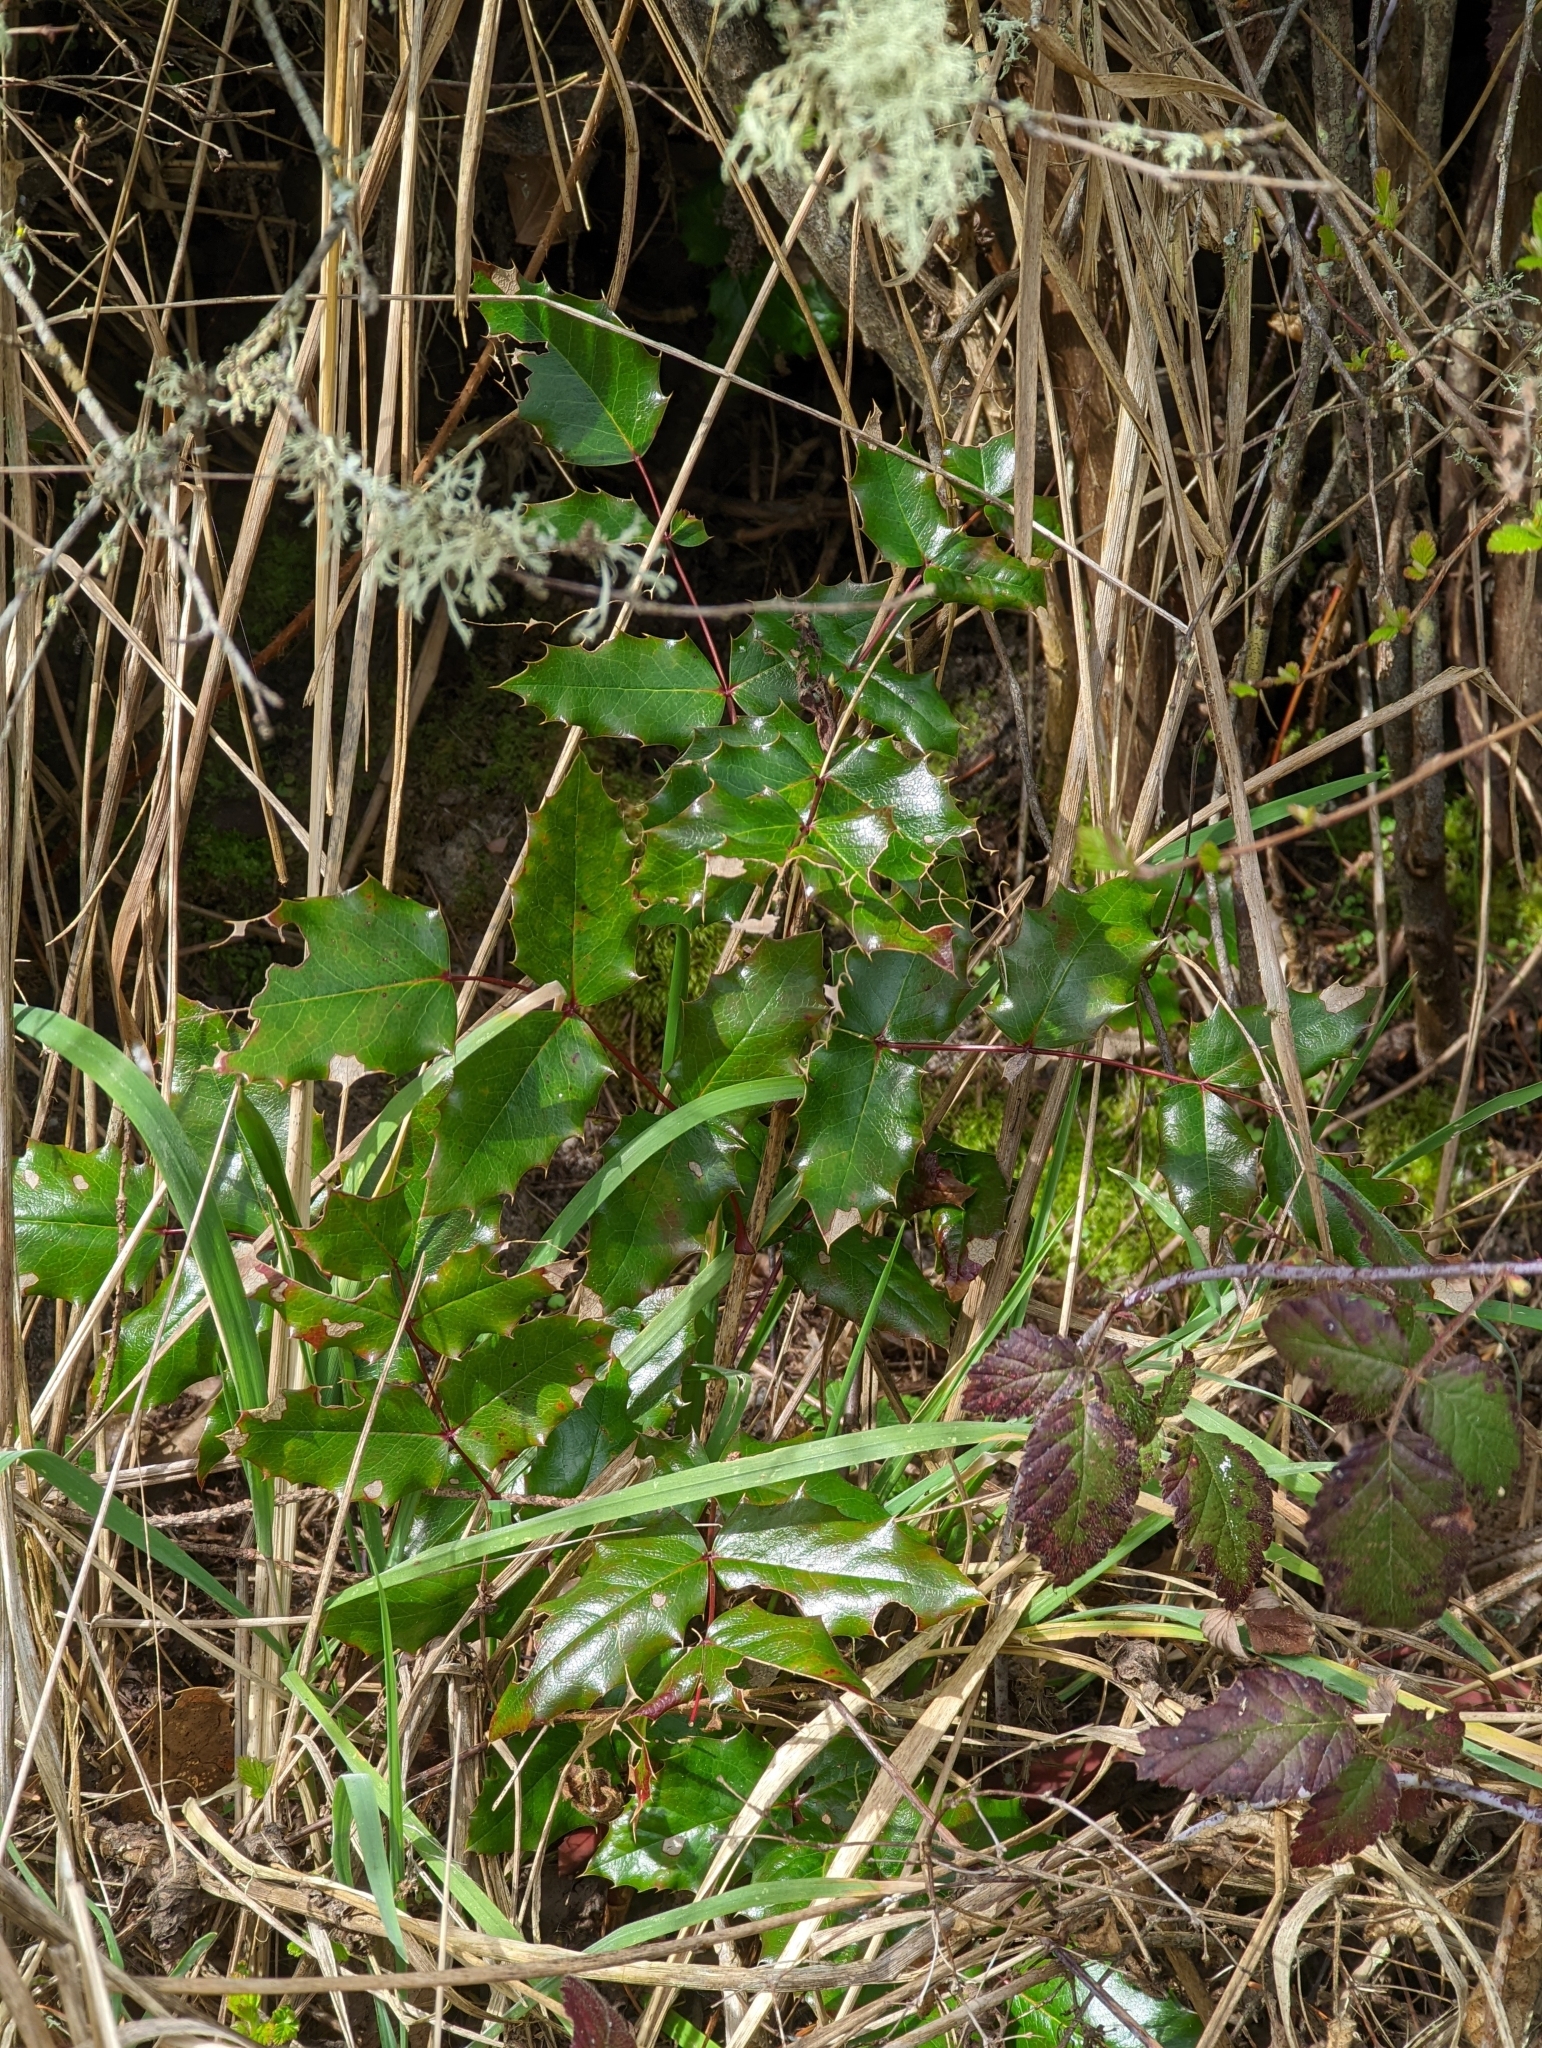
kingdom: Plantae
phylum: Tracheophyta
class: Magnoliopsida
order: Ranunculales
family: Berberidaceae
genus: Mahonia
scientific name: Mahonia aquifolium
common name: Oregon-grape
